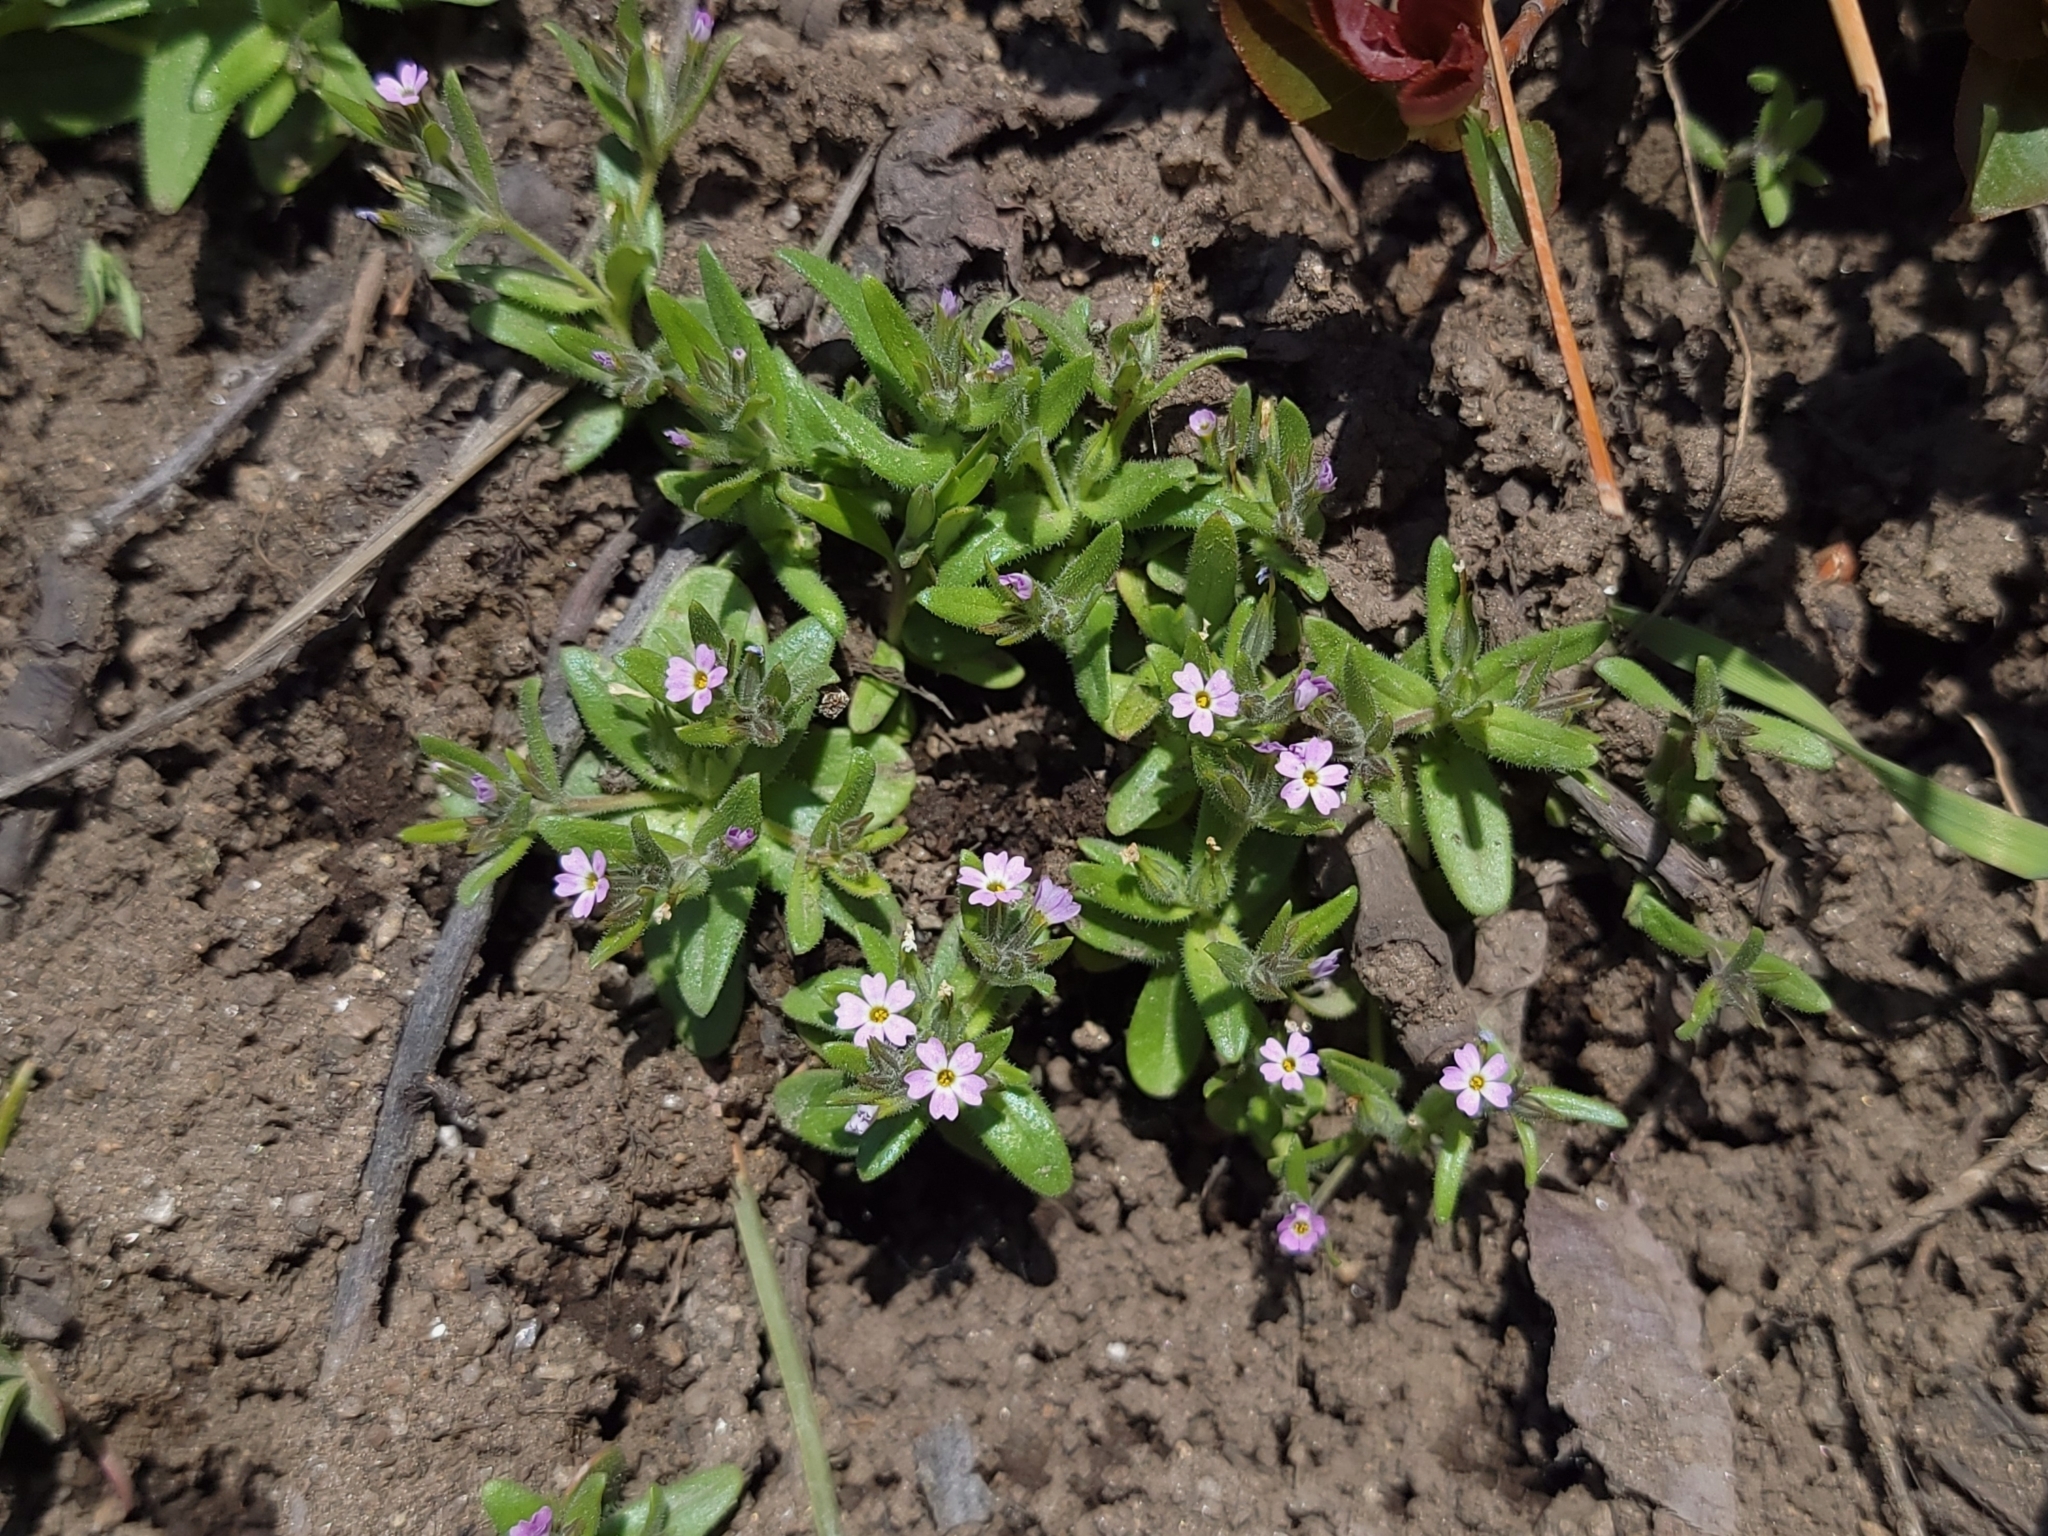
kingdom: Plantae
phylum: Tracheophyta
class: Magnoliopsida
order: Ericales
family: Polemoniaceae
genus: Phlox
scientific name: Phlox gracilis
